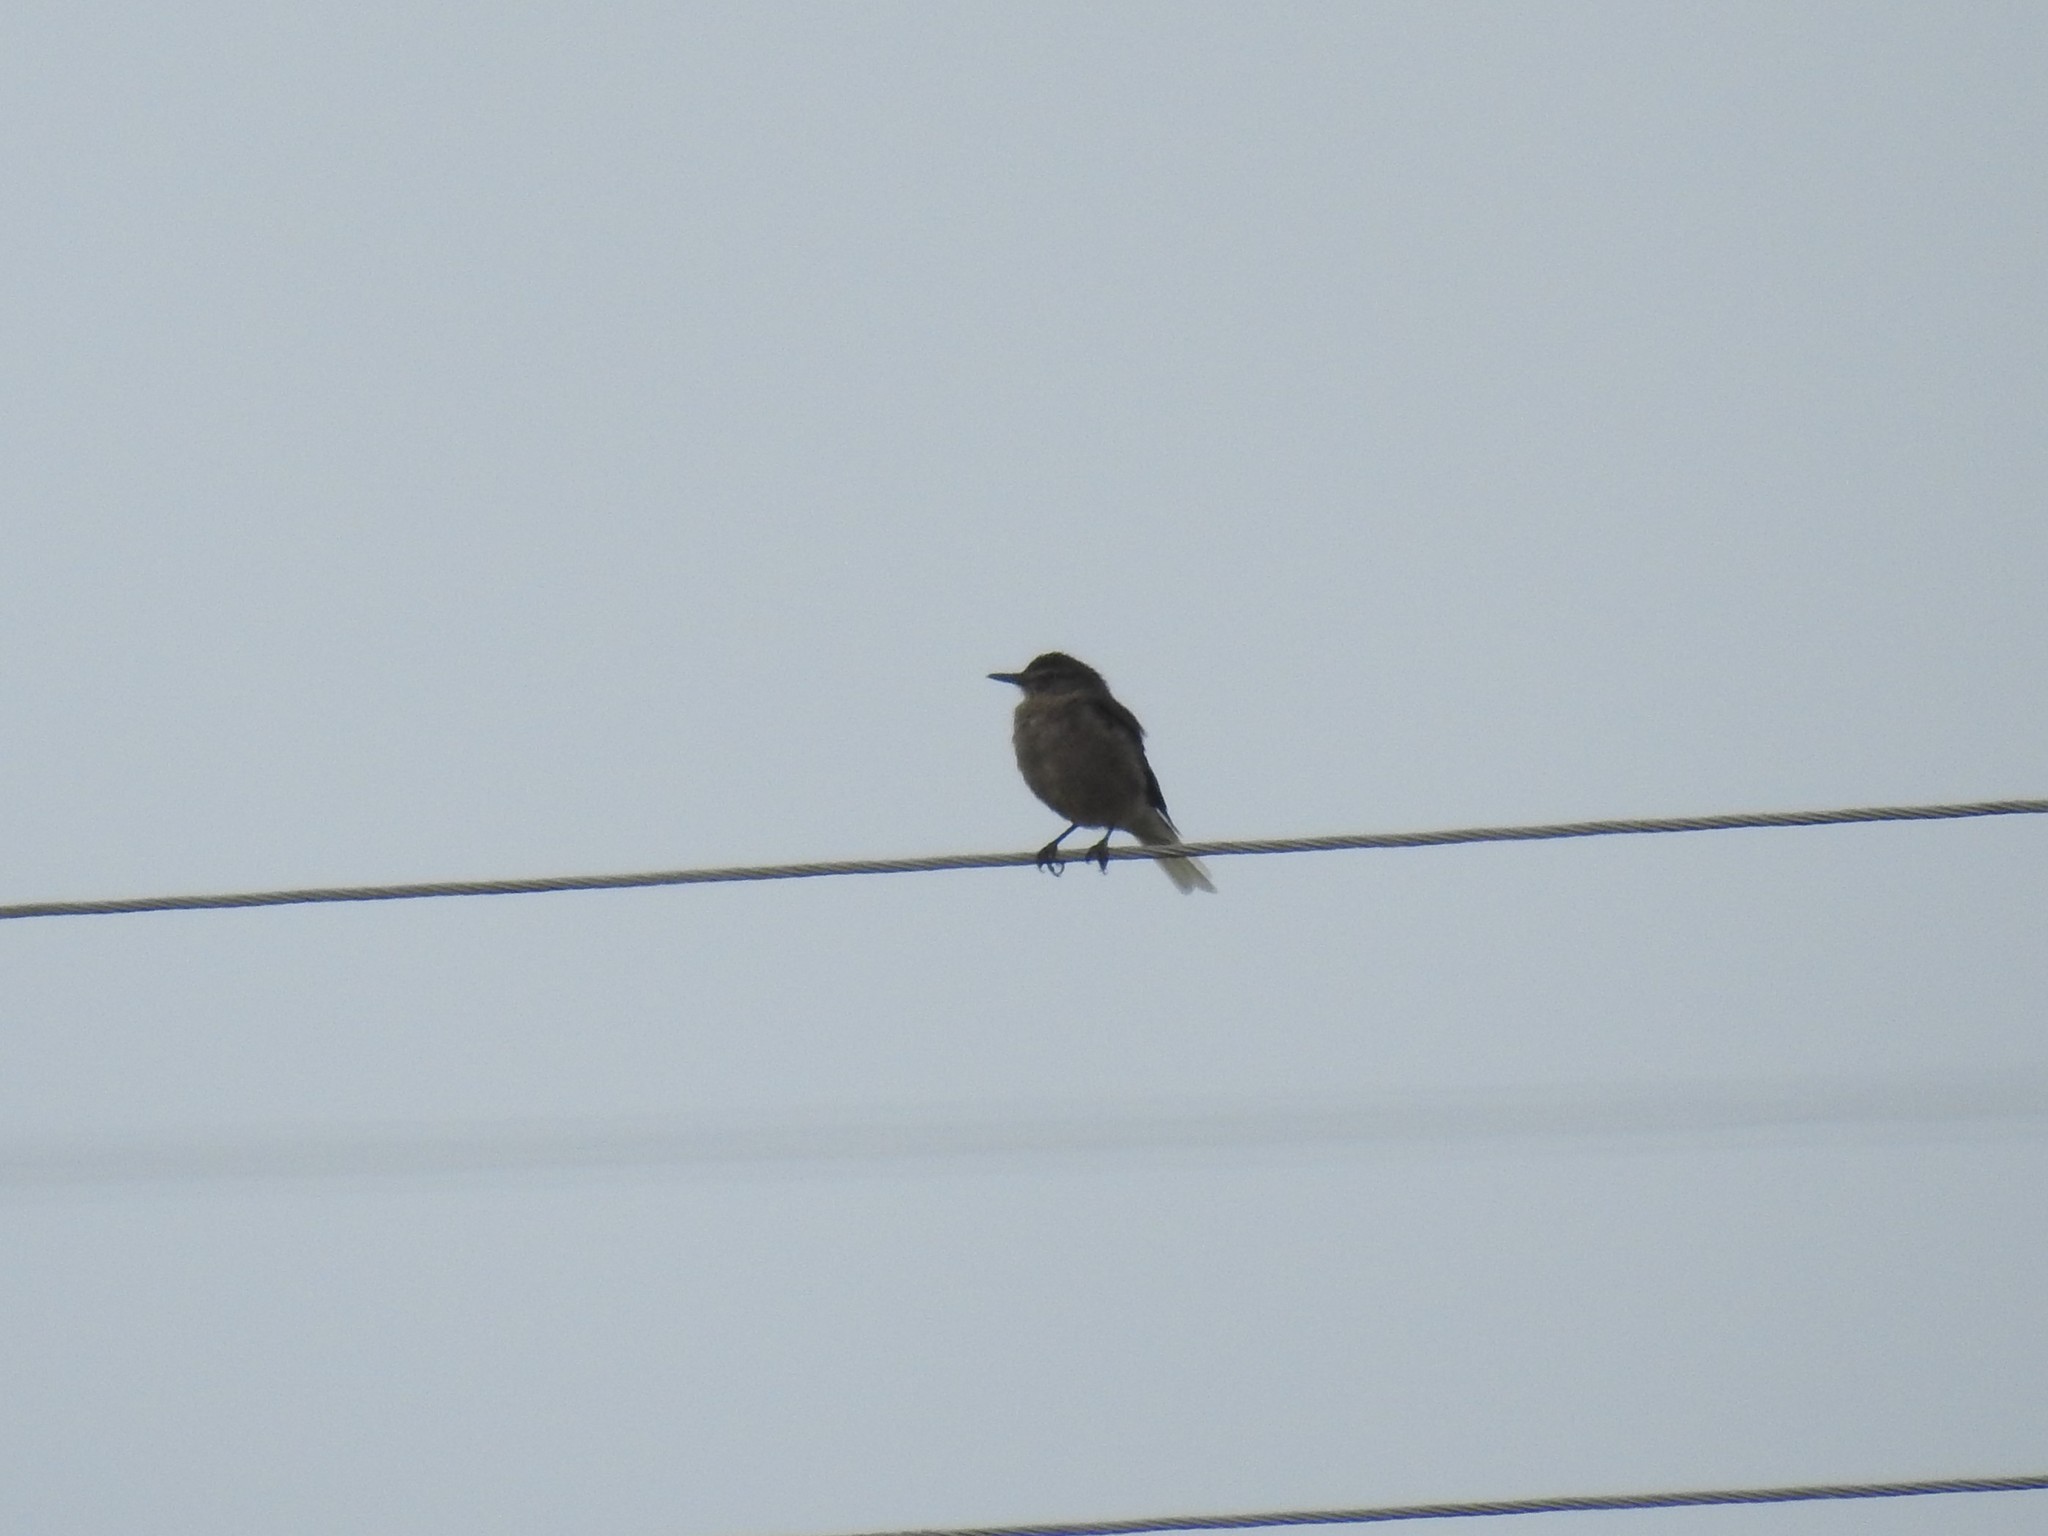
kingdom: Animalia
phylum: Chordata
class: Aves
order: Passeriformes
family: Tyrannidae
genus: Agriornis
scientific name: Agriornis montanus
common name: Black-billed shrike-tyrant
